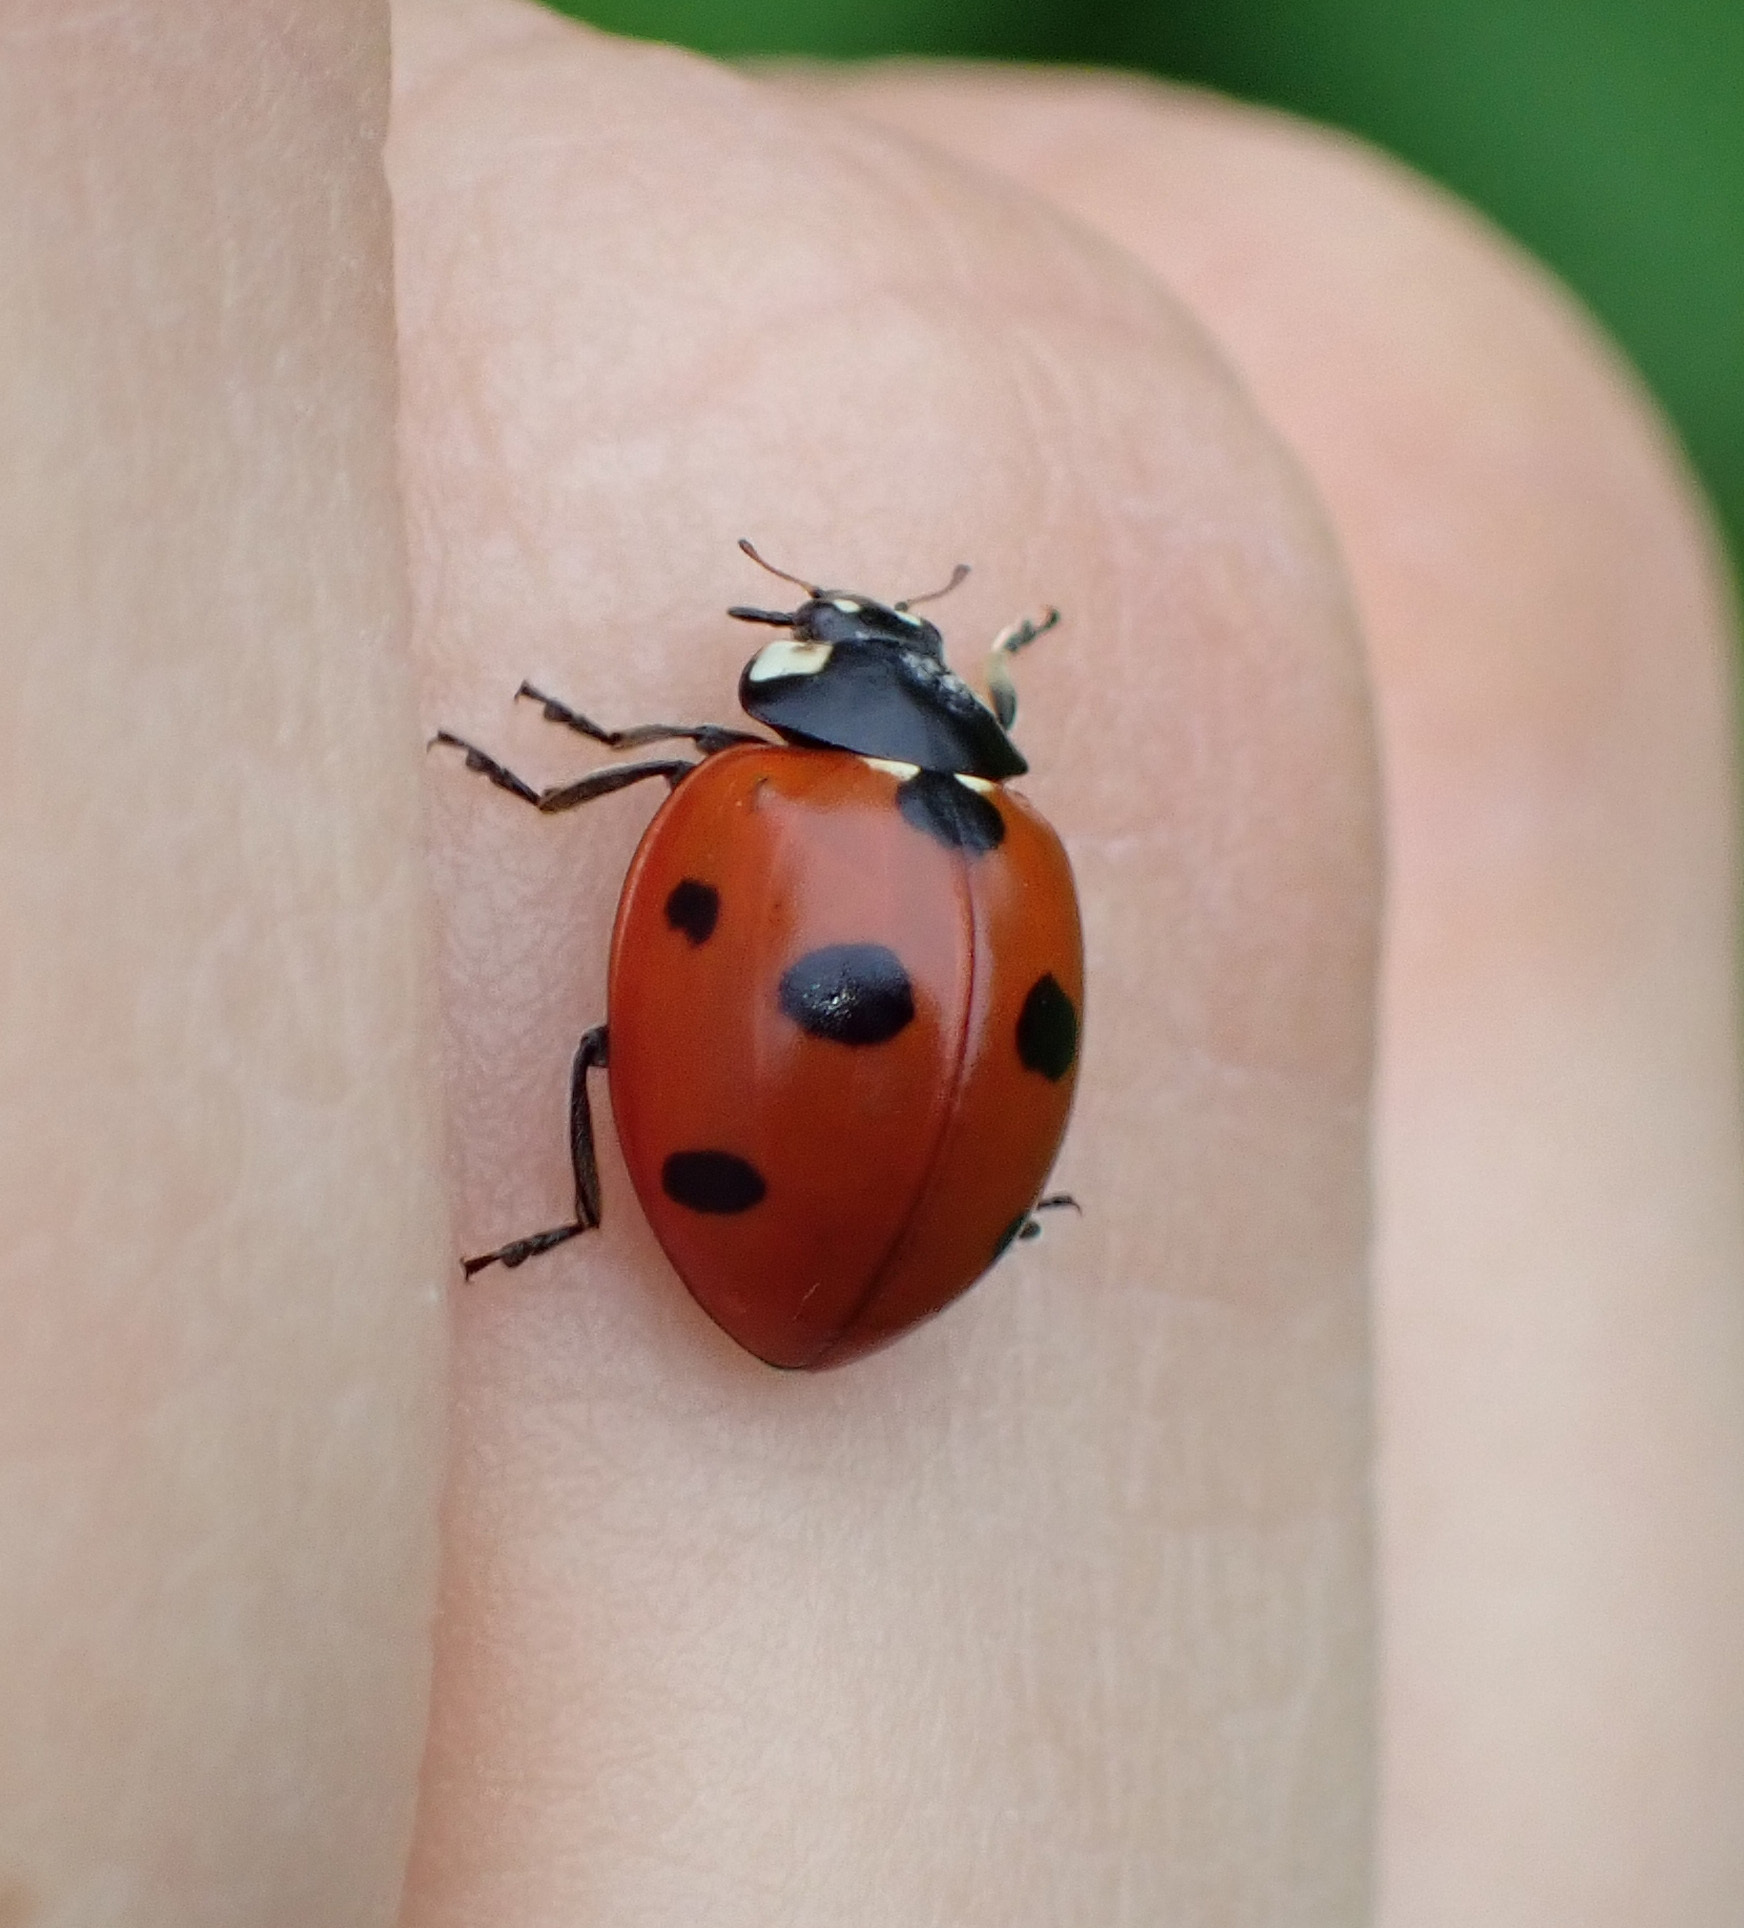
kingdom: Animalia
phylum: Arthropoda
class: Insecta
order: Coleoptera
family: Coccinellidae
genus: Coccinella
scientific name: Coccinella septempunctata
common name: Sevenspotted lady beetle
